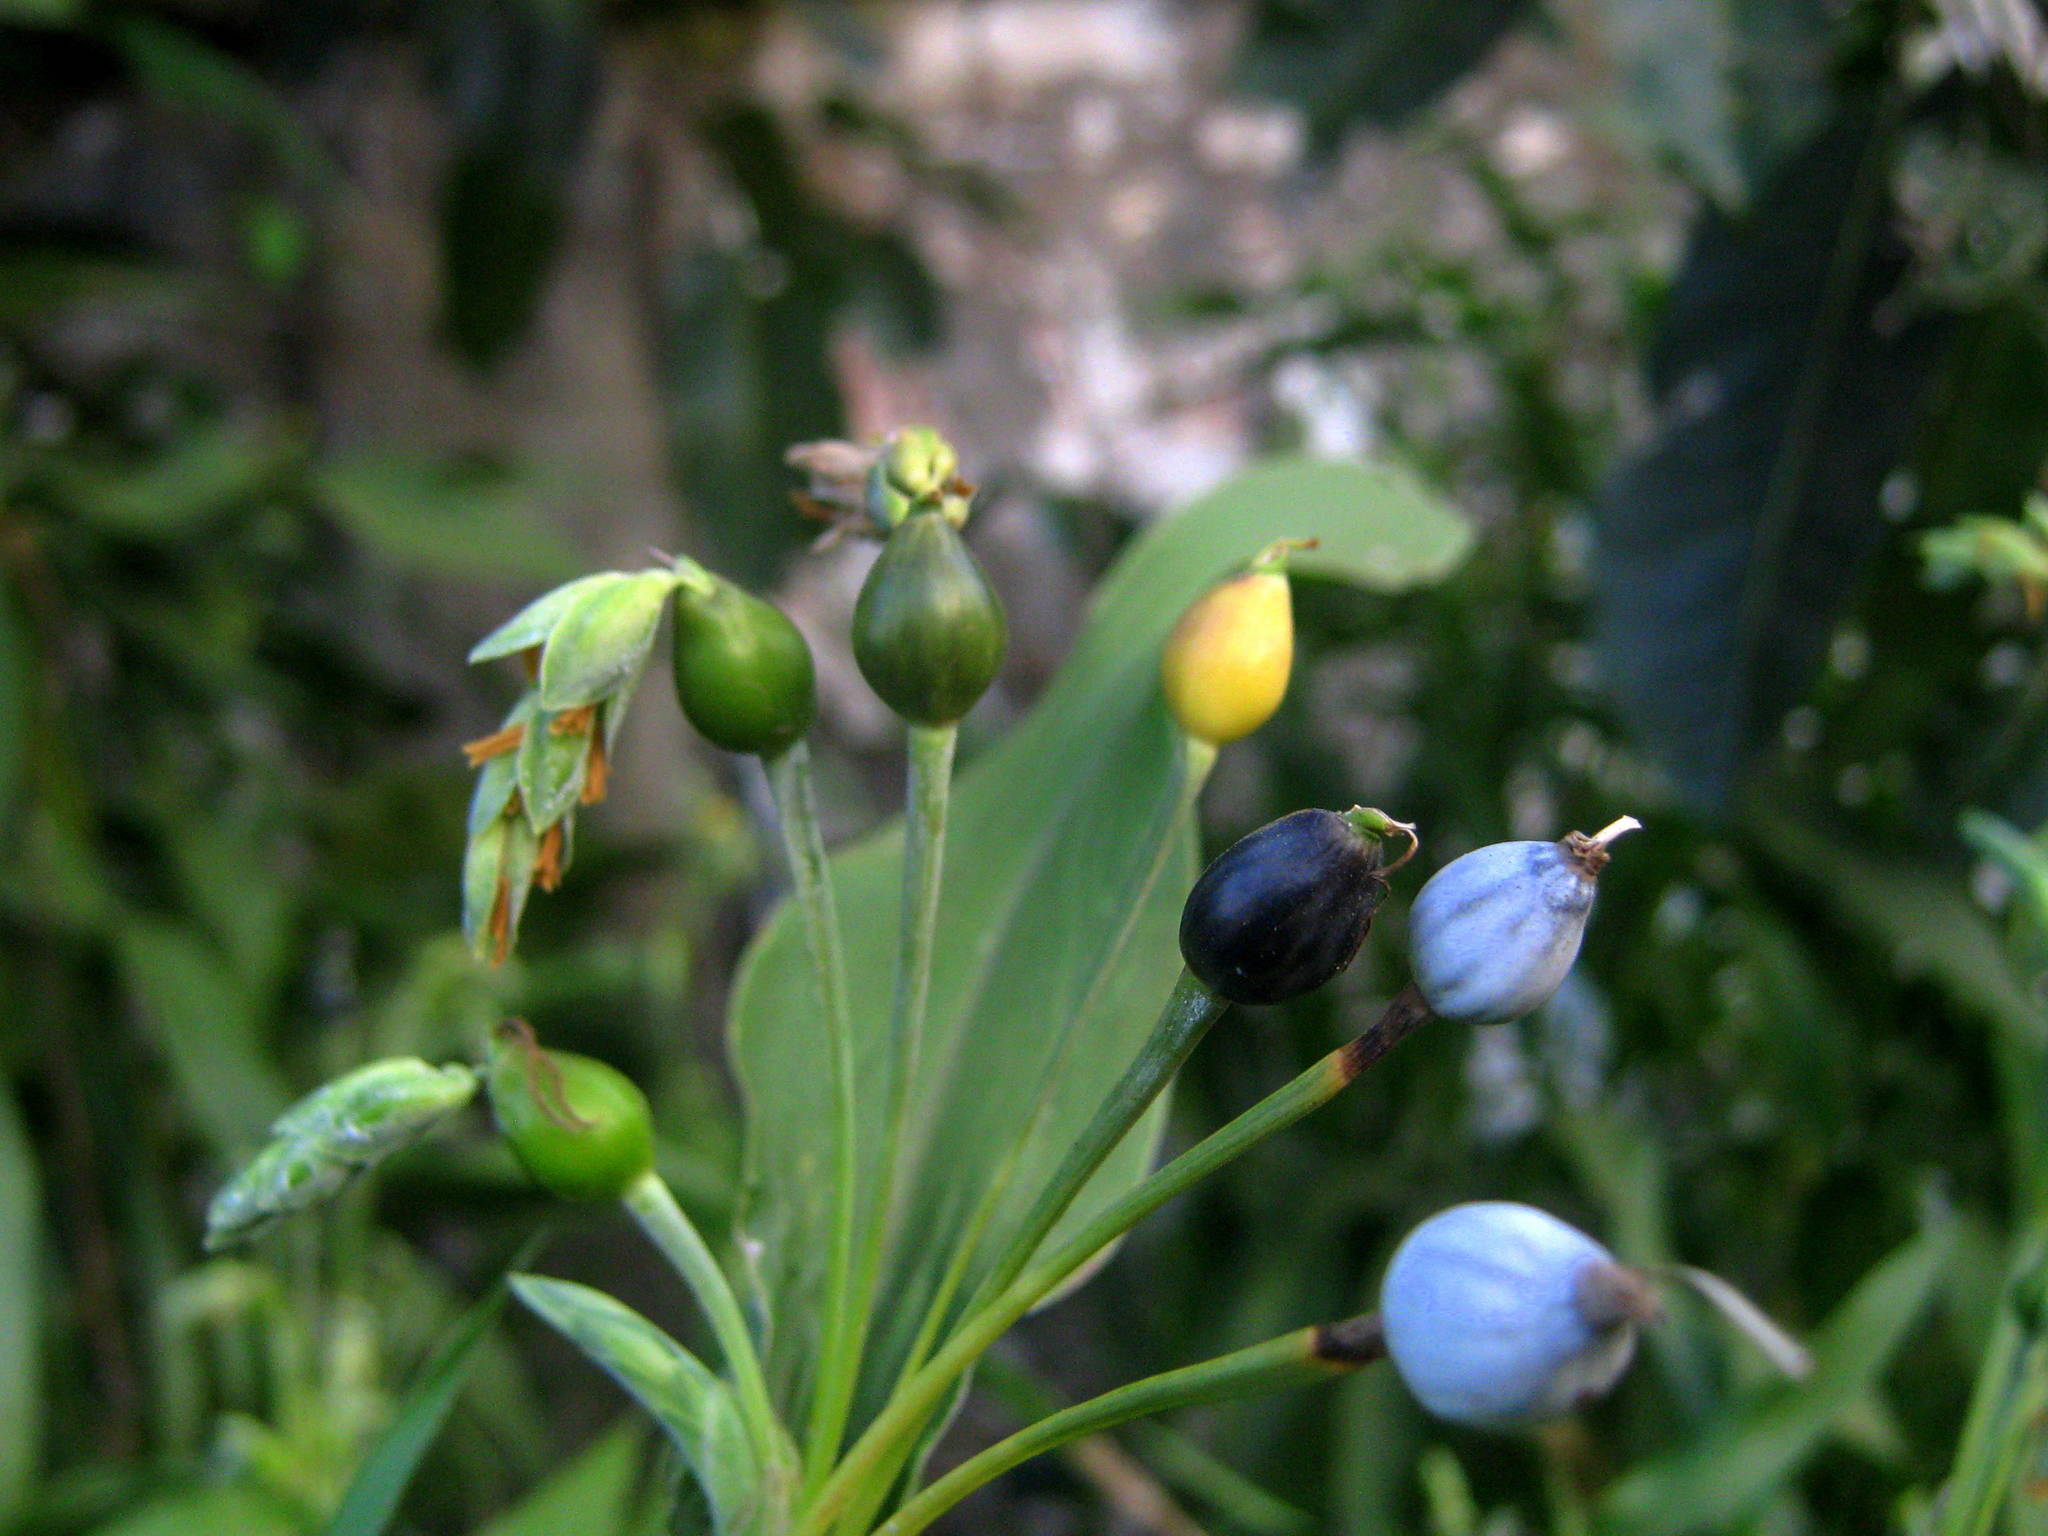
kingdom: Plantae
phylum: Tracheophyta
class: Liliopsida
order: Poales
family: Poaceae
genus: Coix
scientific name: Coix lacryma-jobi
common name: Job's tears
